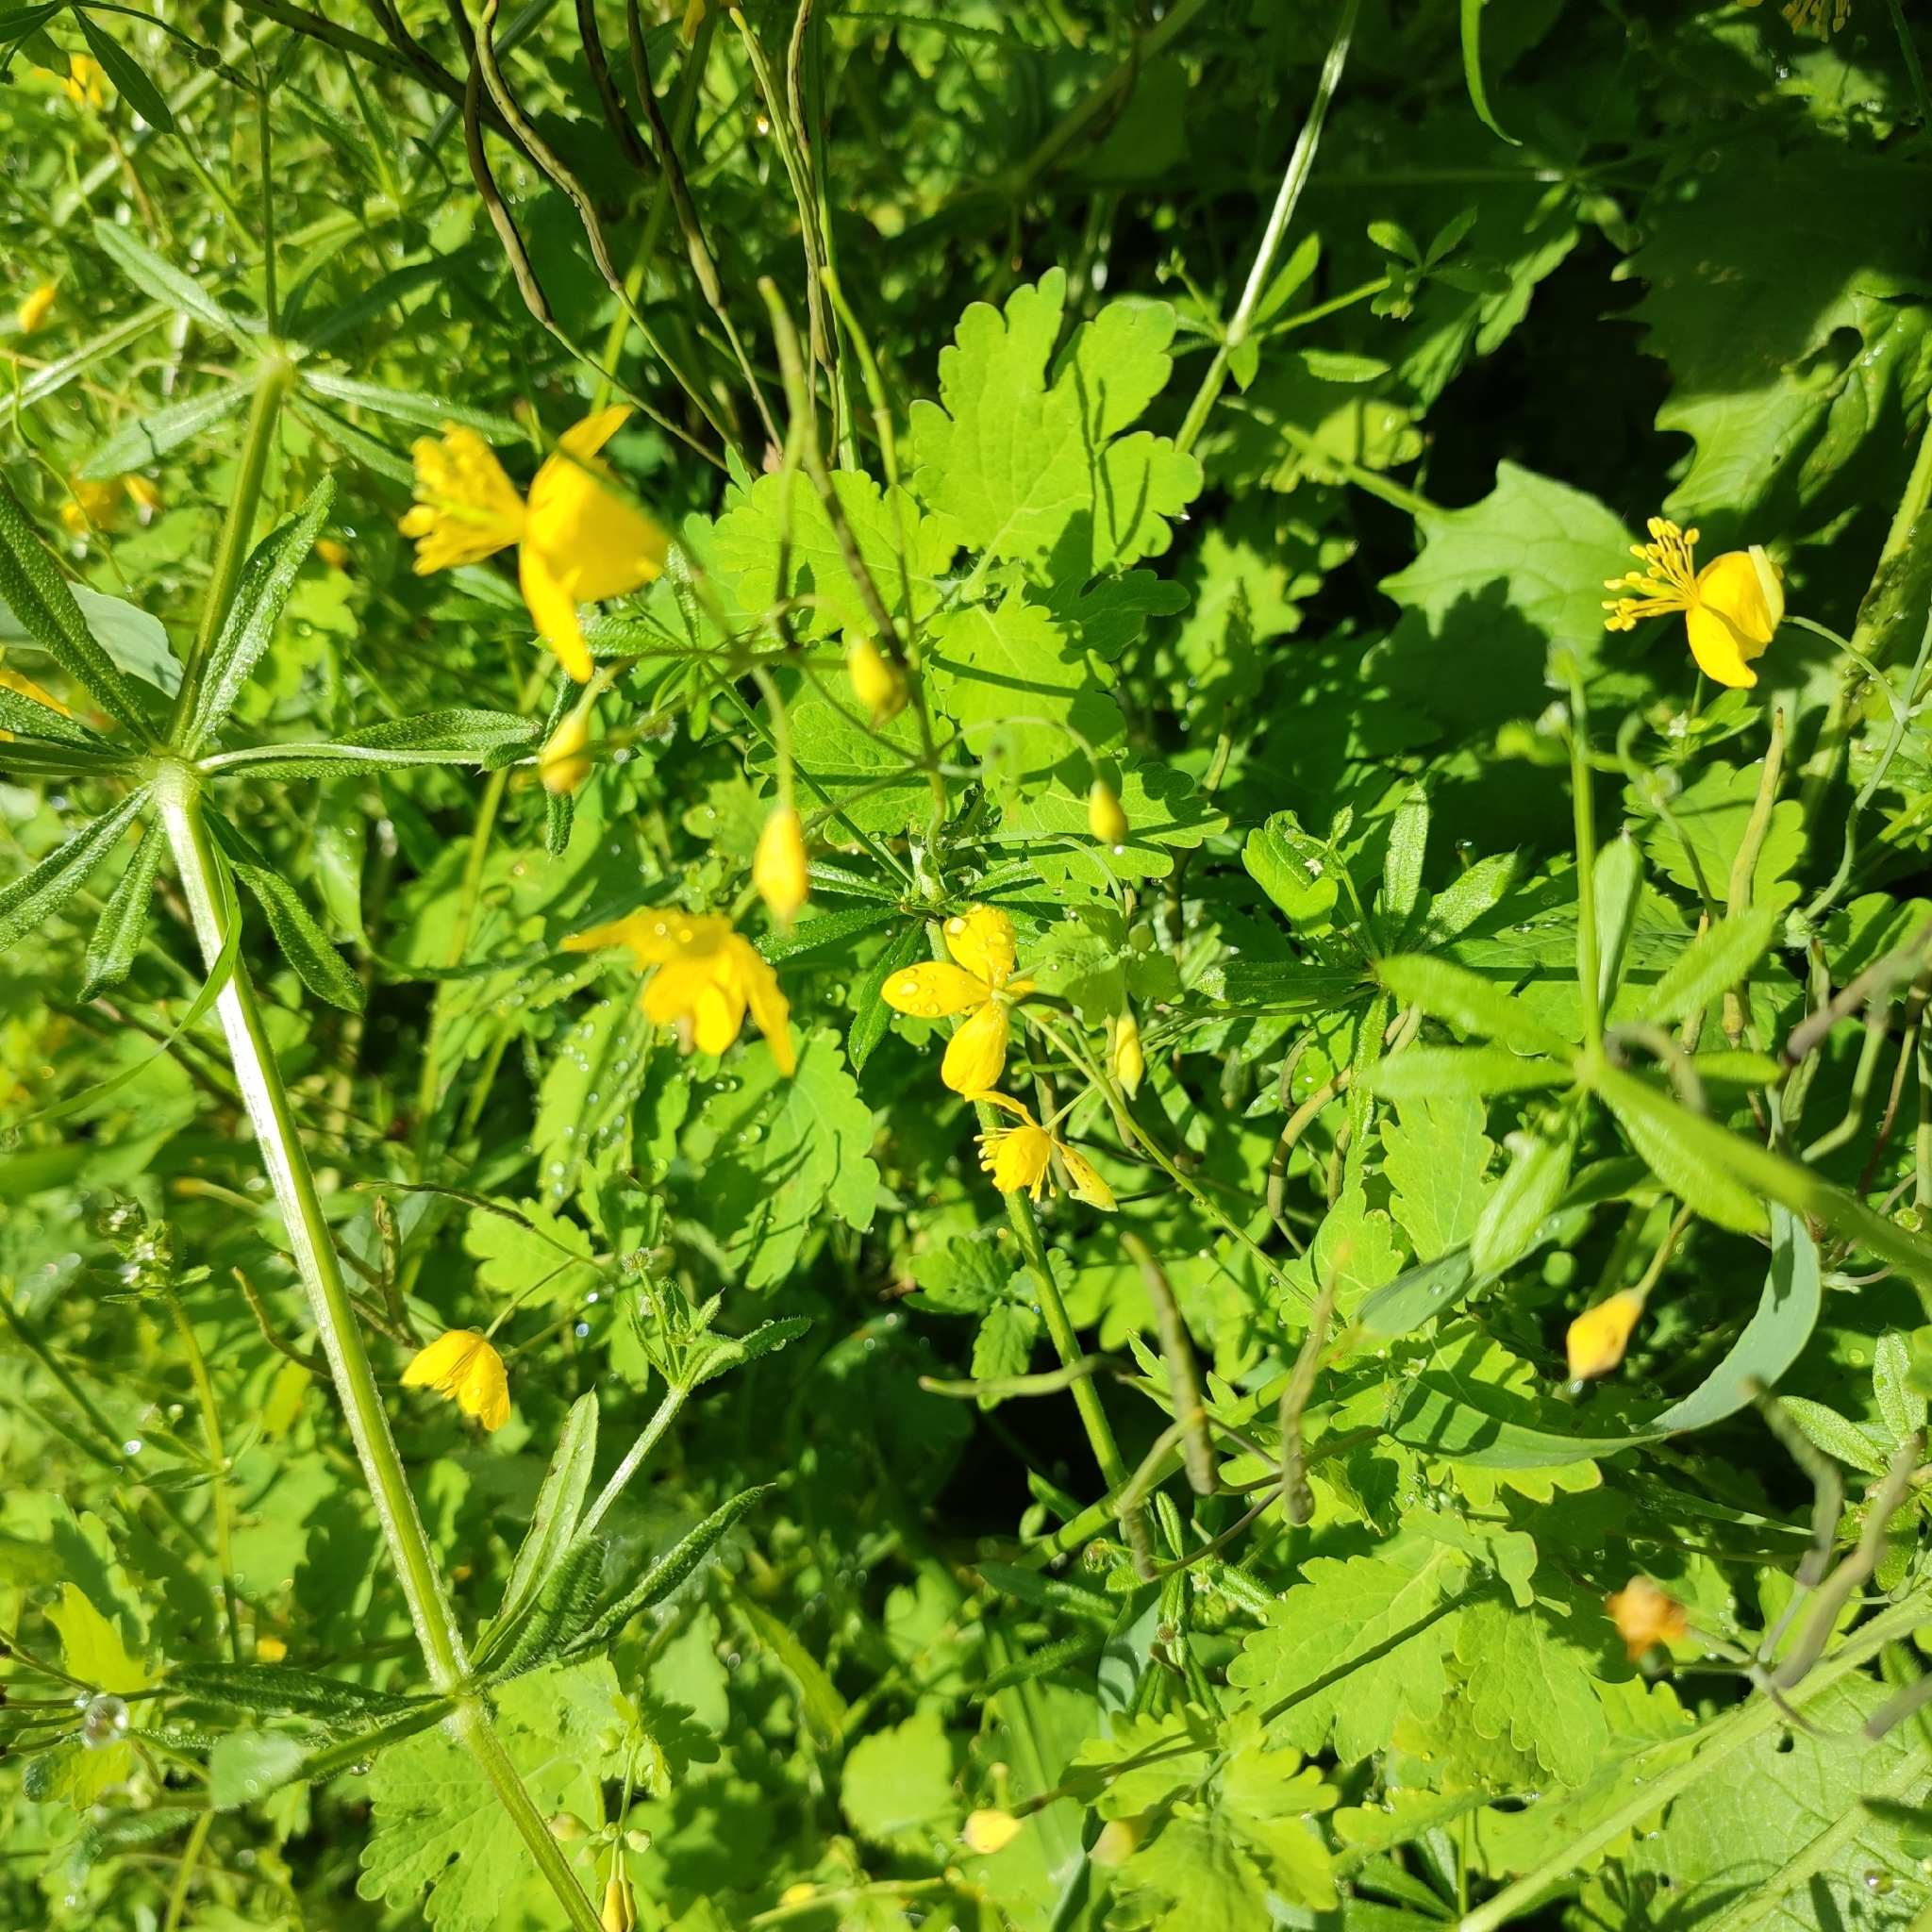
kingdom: Plantae
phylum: Tracheophyta
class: Magnoliopsida
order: Ranunculales
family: Papaveraceae
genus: Chelidonium
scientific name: Chelidonium majus
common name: Greater celandine
